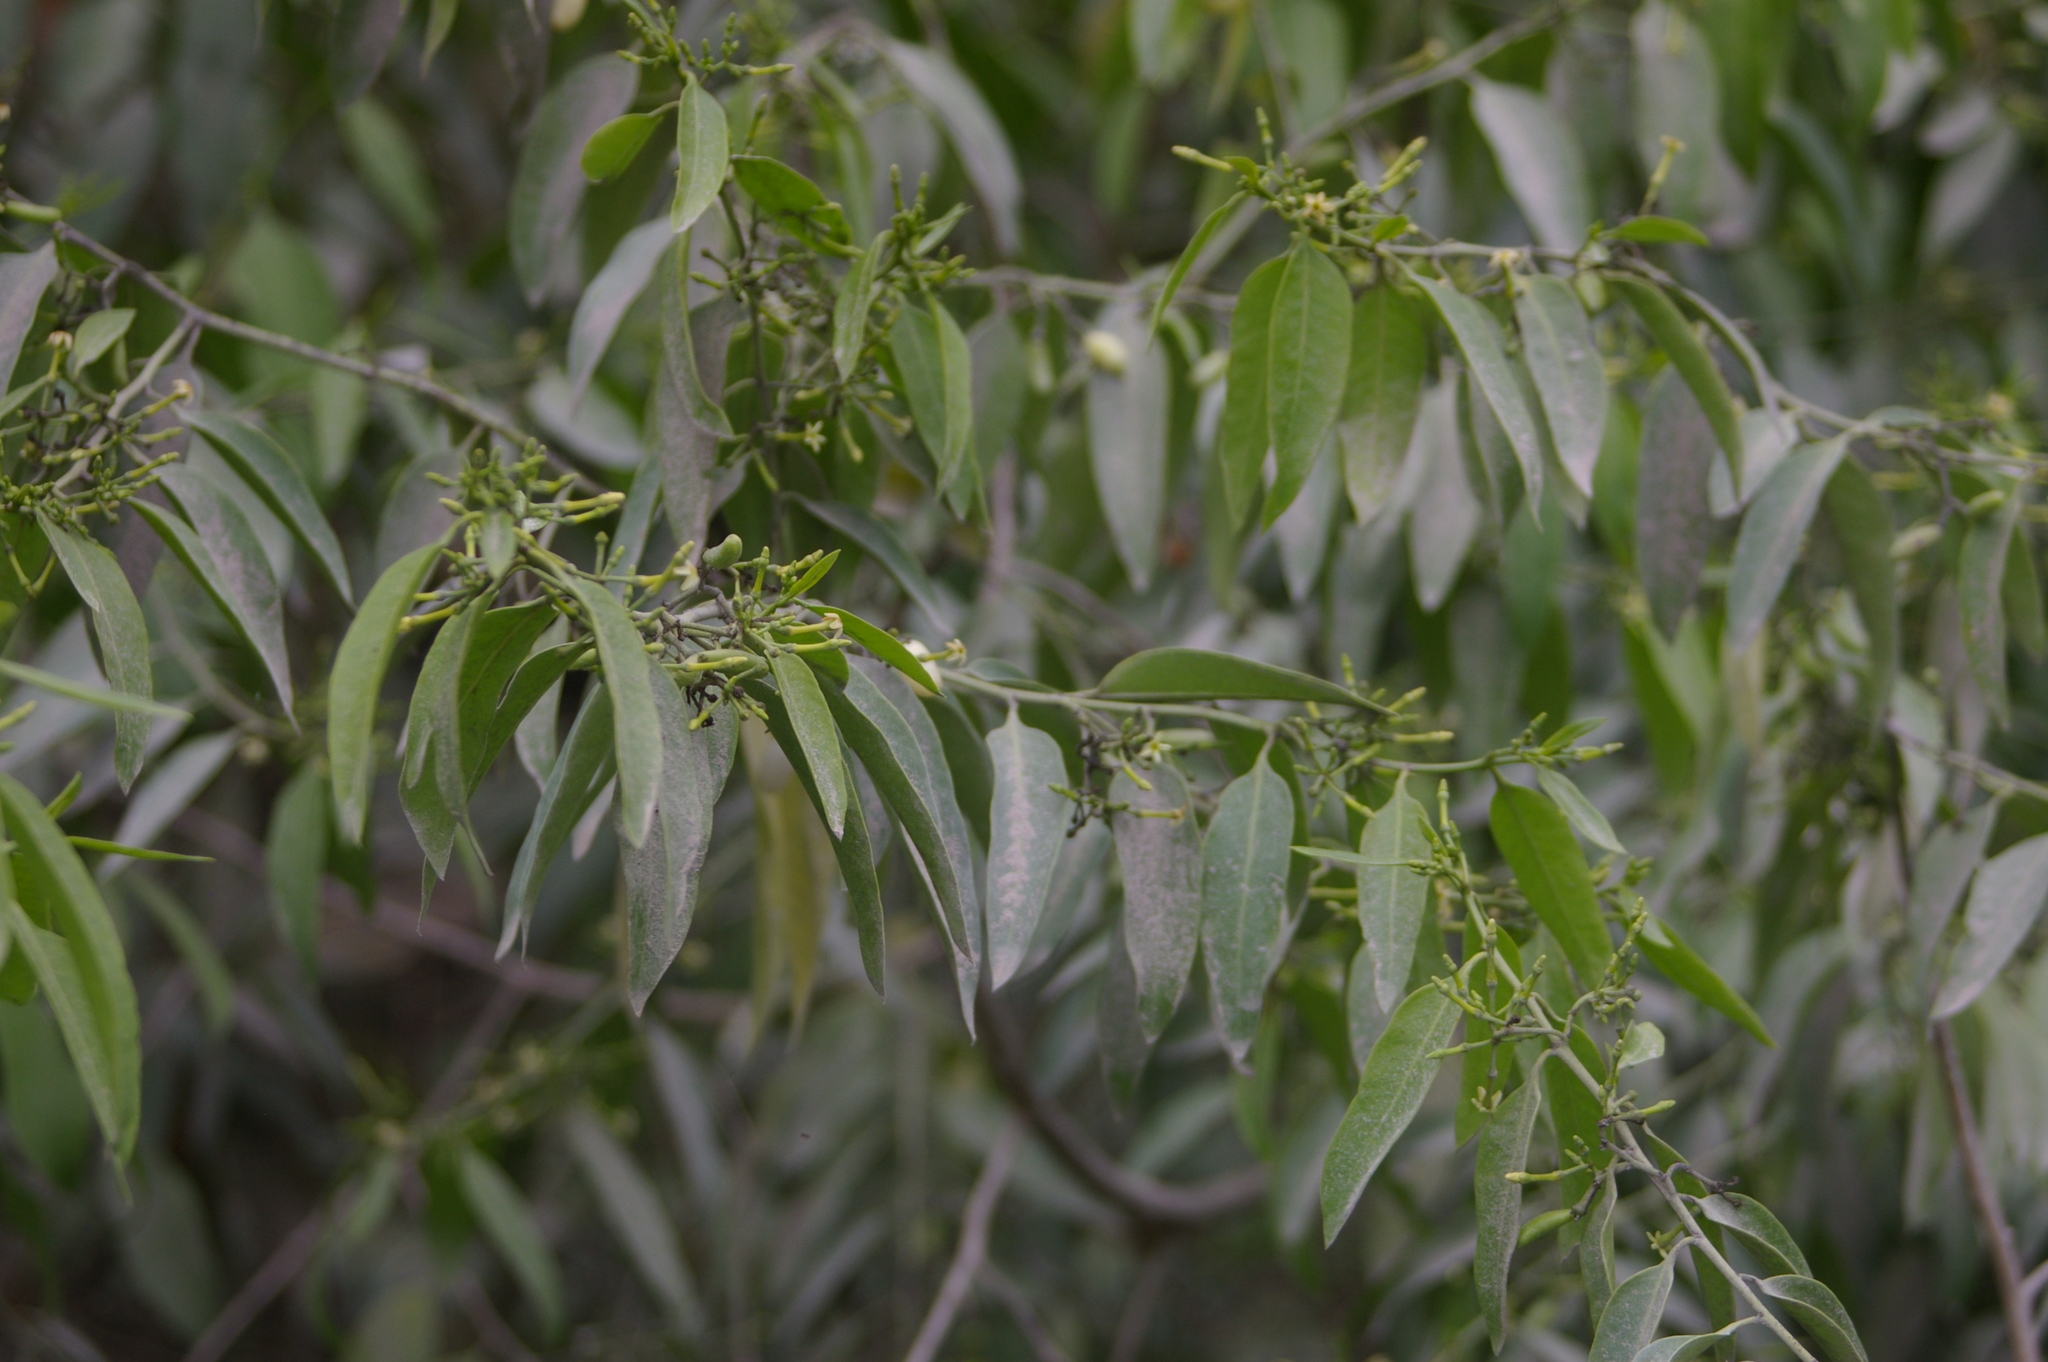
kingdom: Plantae
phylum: Tracheophyta
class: Magnoliopsida
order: Gentianales
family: Apocynaceae
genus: Vallesia
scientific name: Vallesia glabra
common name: Pearlberry
